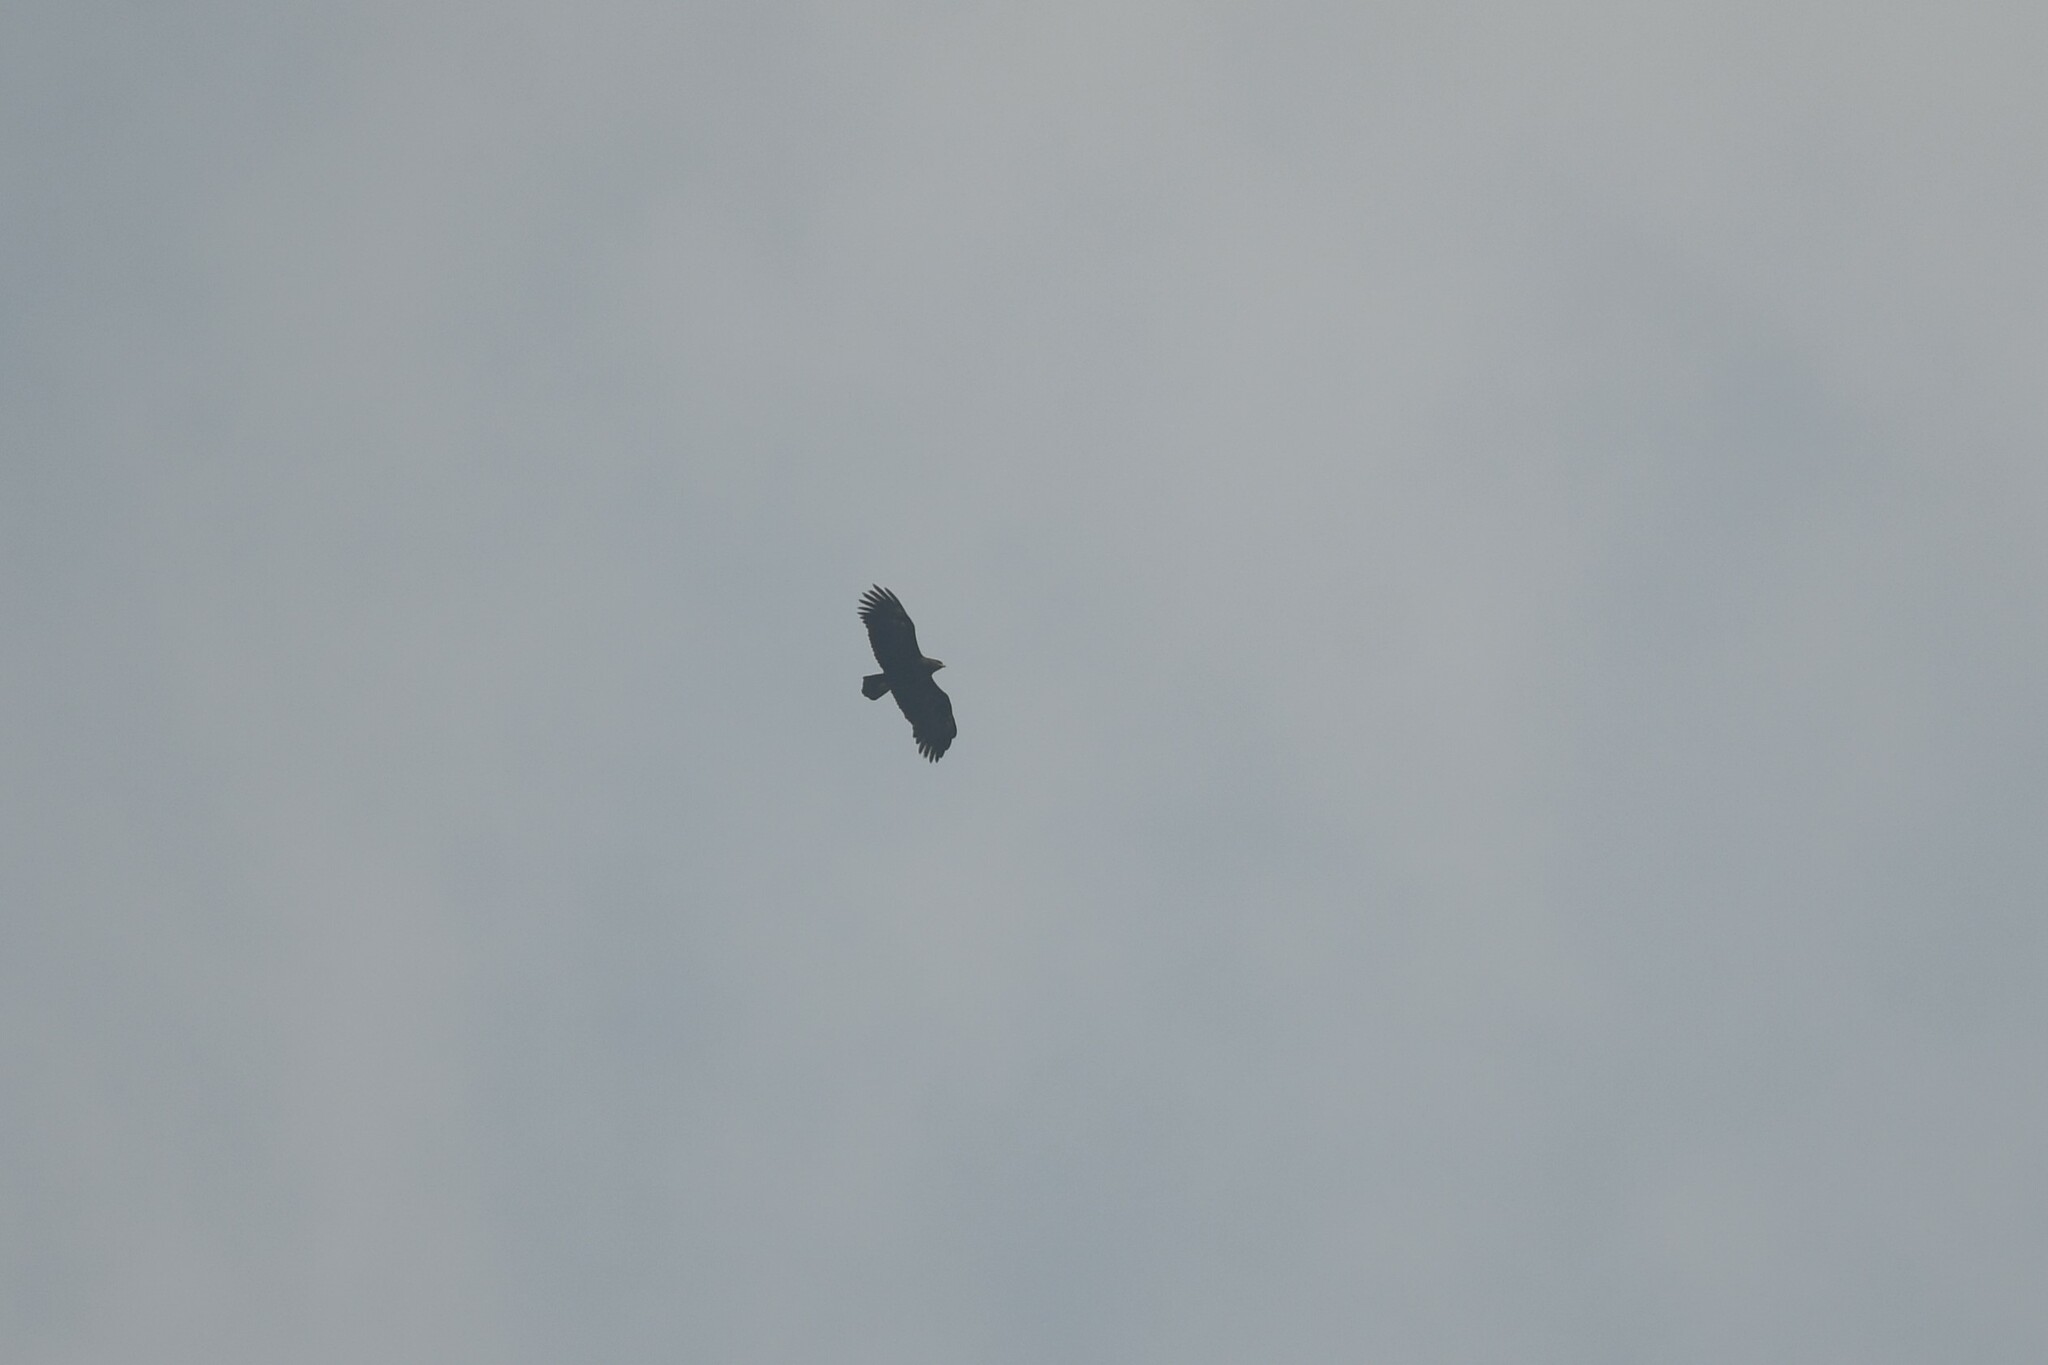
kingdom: Animalia
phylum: Chordata
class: Aves
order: Accipitriformes
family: Accipitridae
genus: Aquila
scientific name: Aquila clanga
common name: Greater spotted eagle
